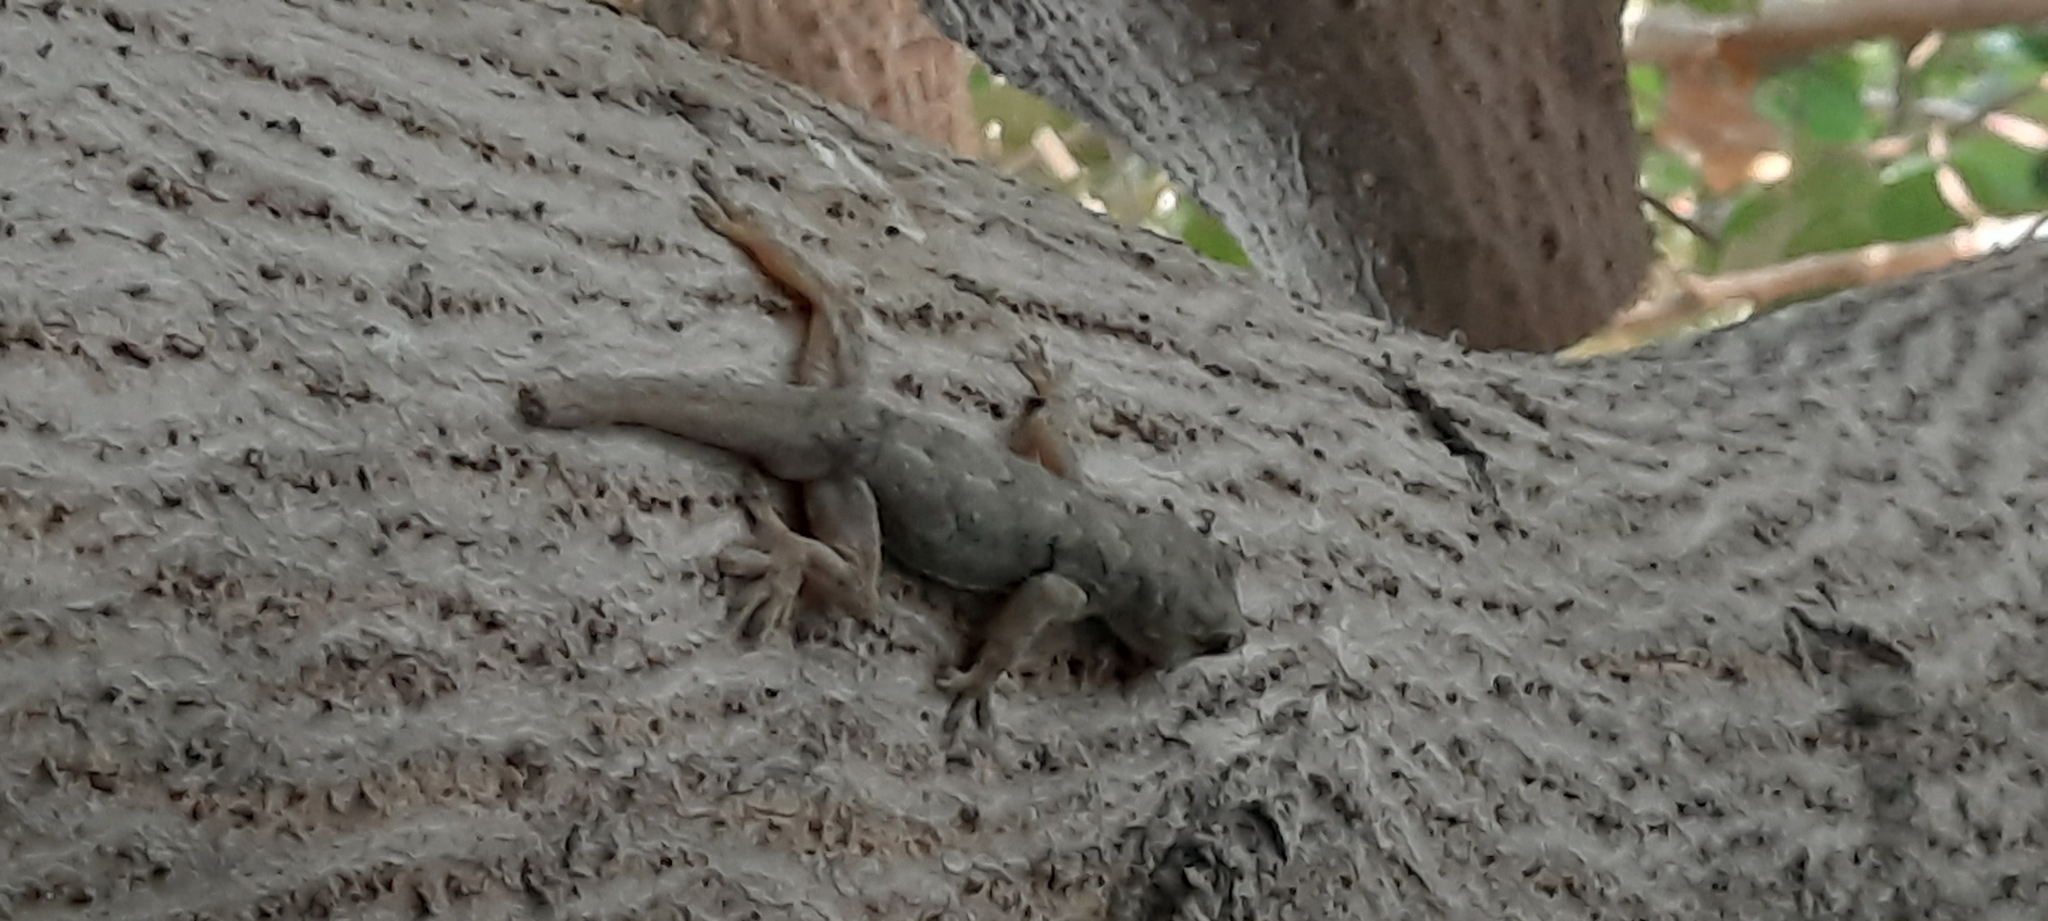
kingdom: Animalia
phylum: Chordata
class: Squamata
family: Gekkonidae
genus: Hemidactylus
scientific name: Hemidactylus flaviviridis
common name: Northern house gecko
